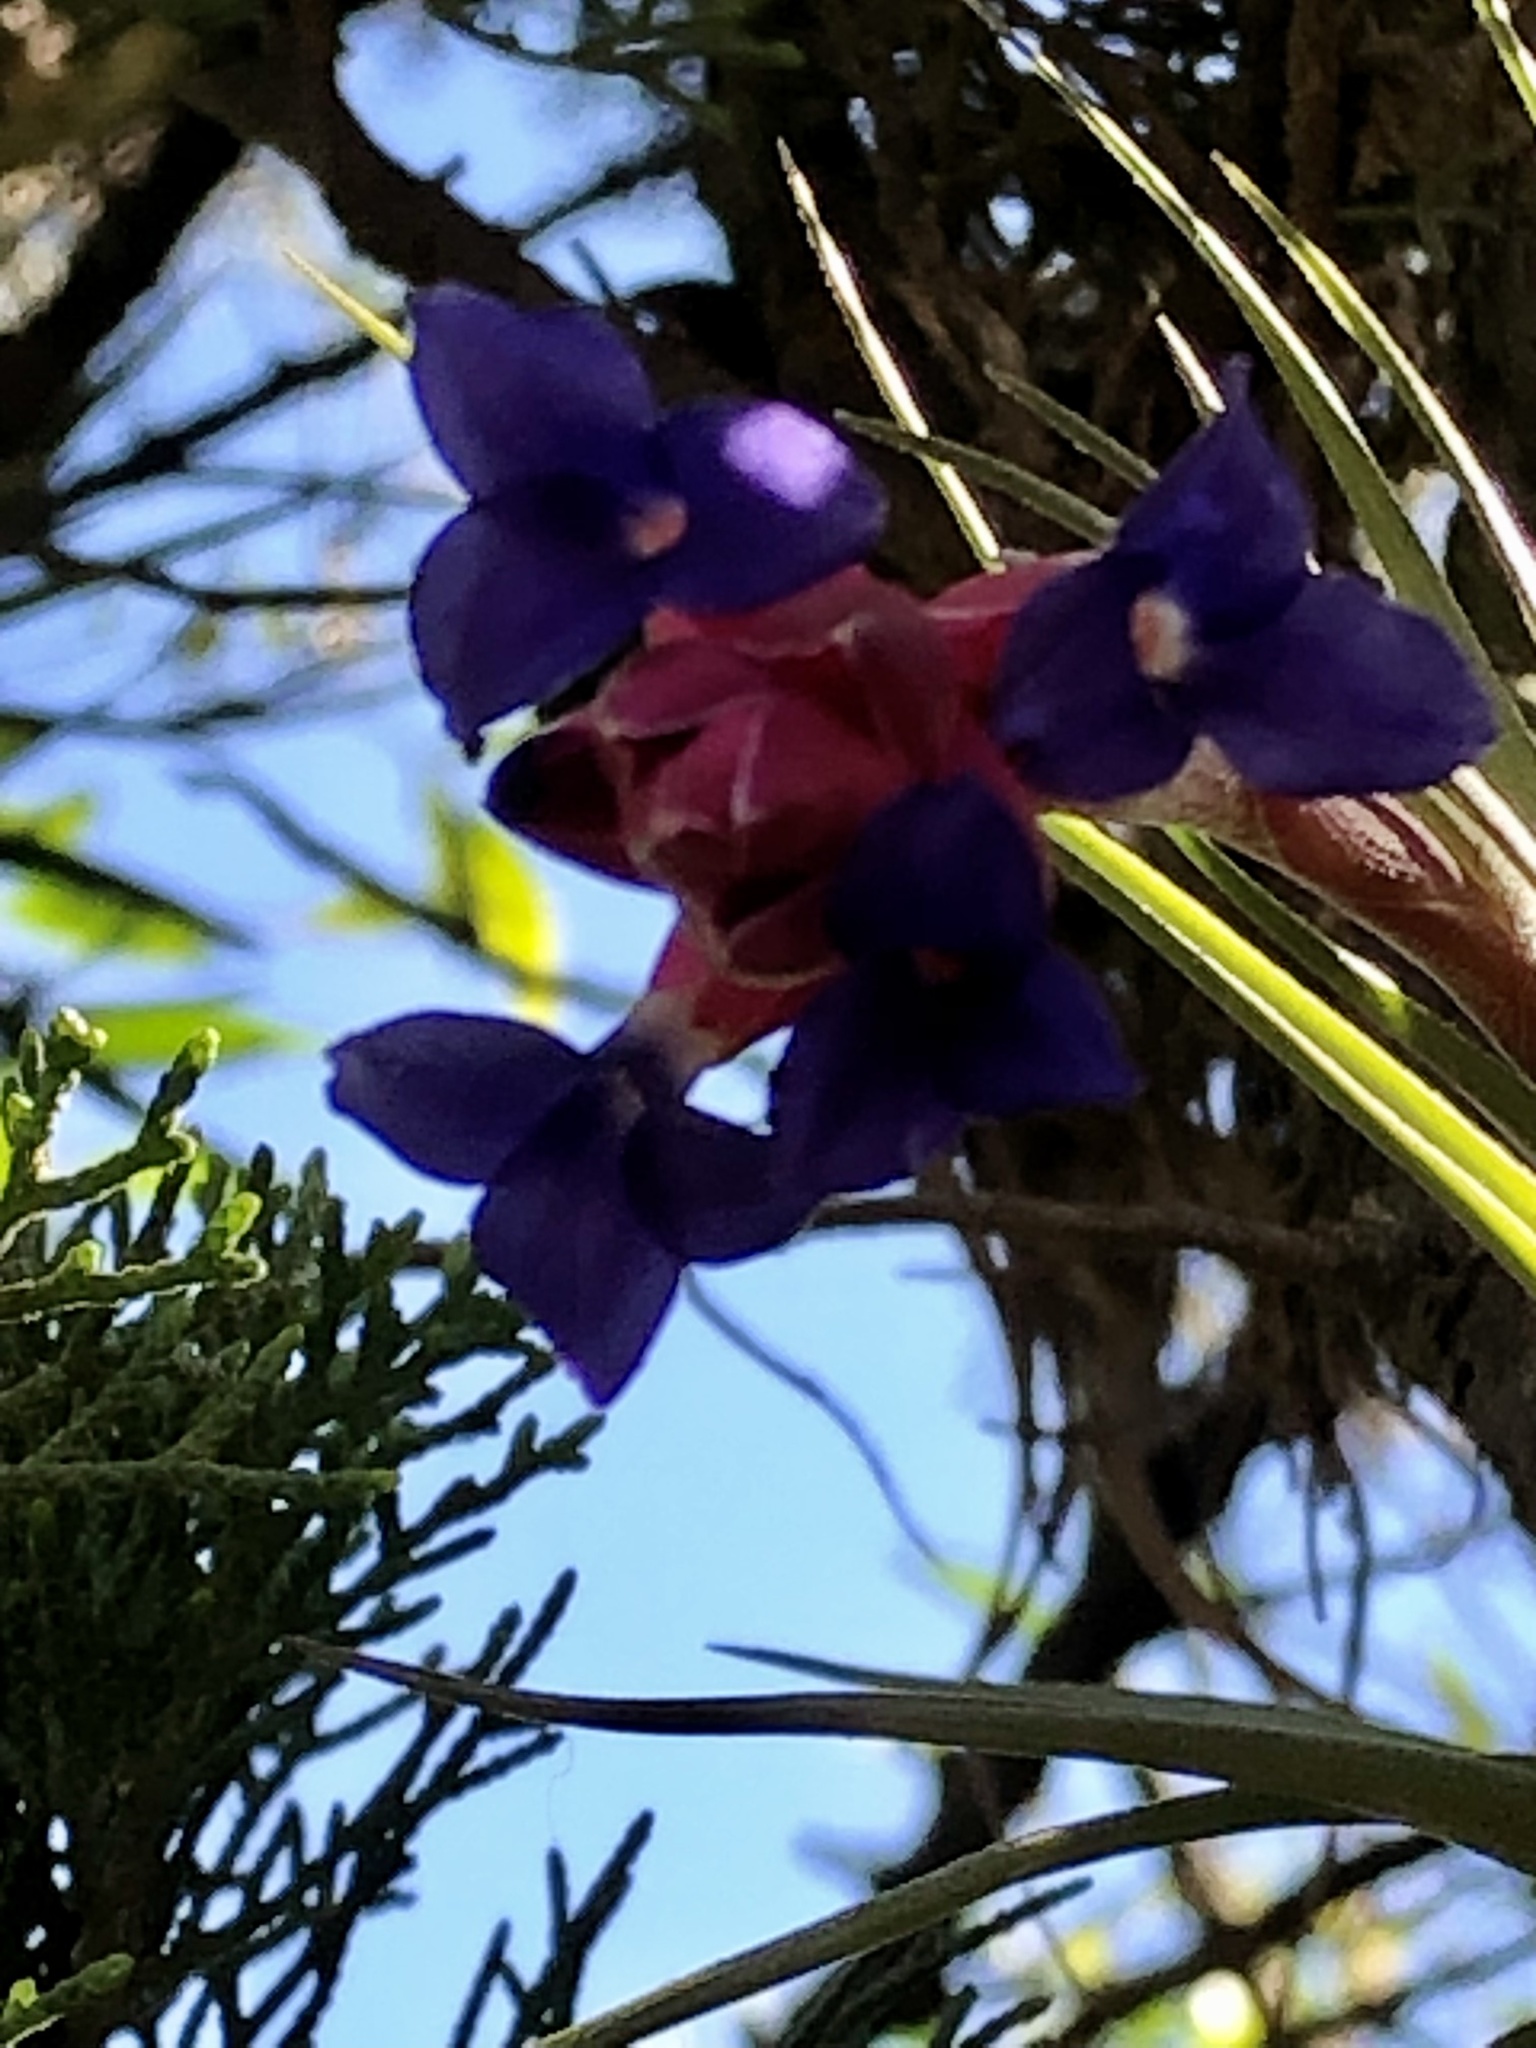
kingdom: Plantae
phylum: Tracheophyta
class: Liliopsida
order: Poales
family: Bromeliaceae
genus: Tillandsia
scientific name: Tillandsia aeranthos
